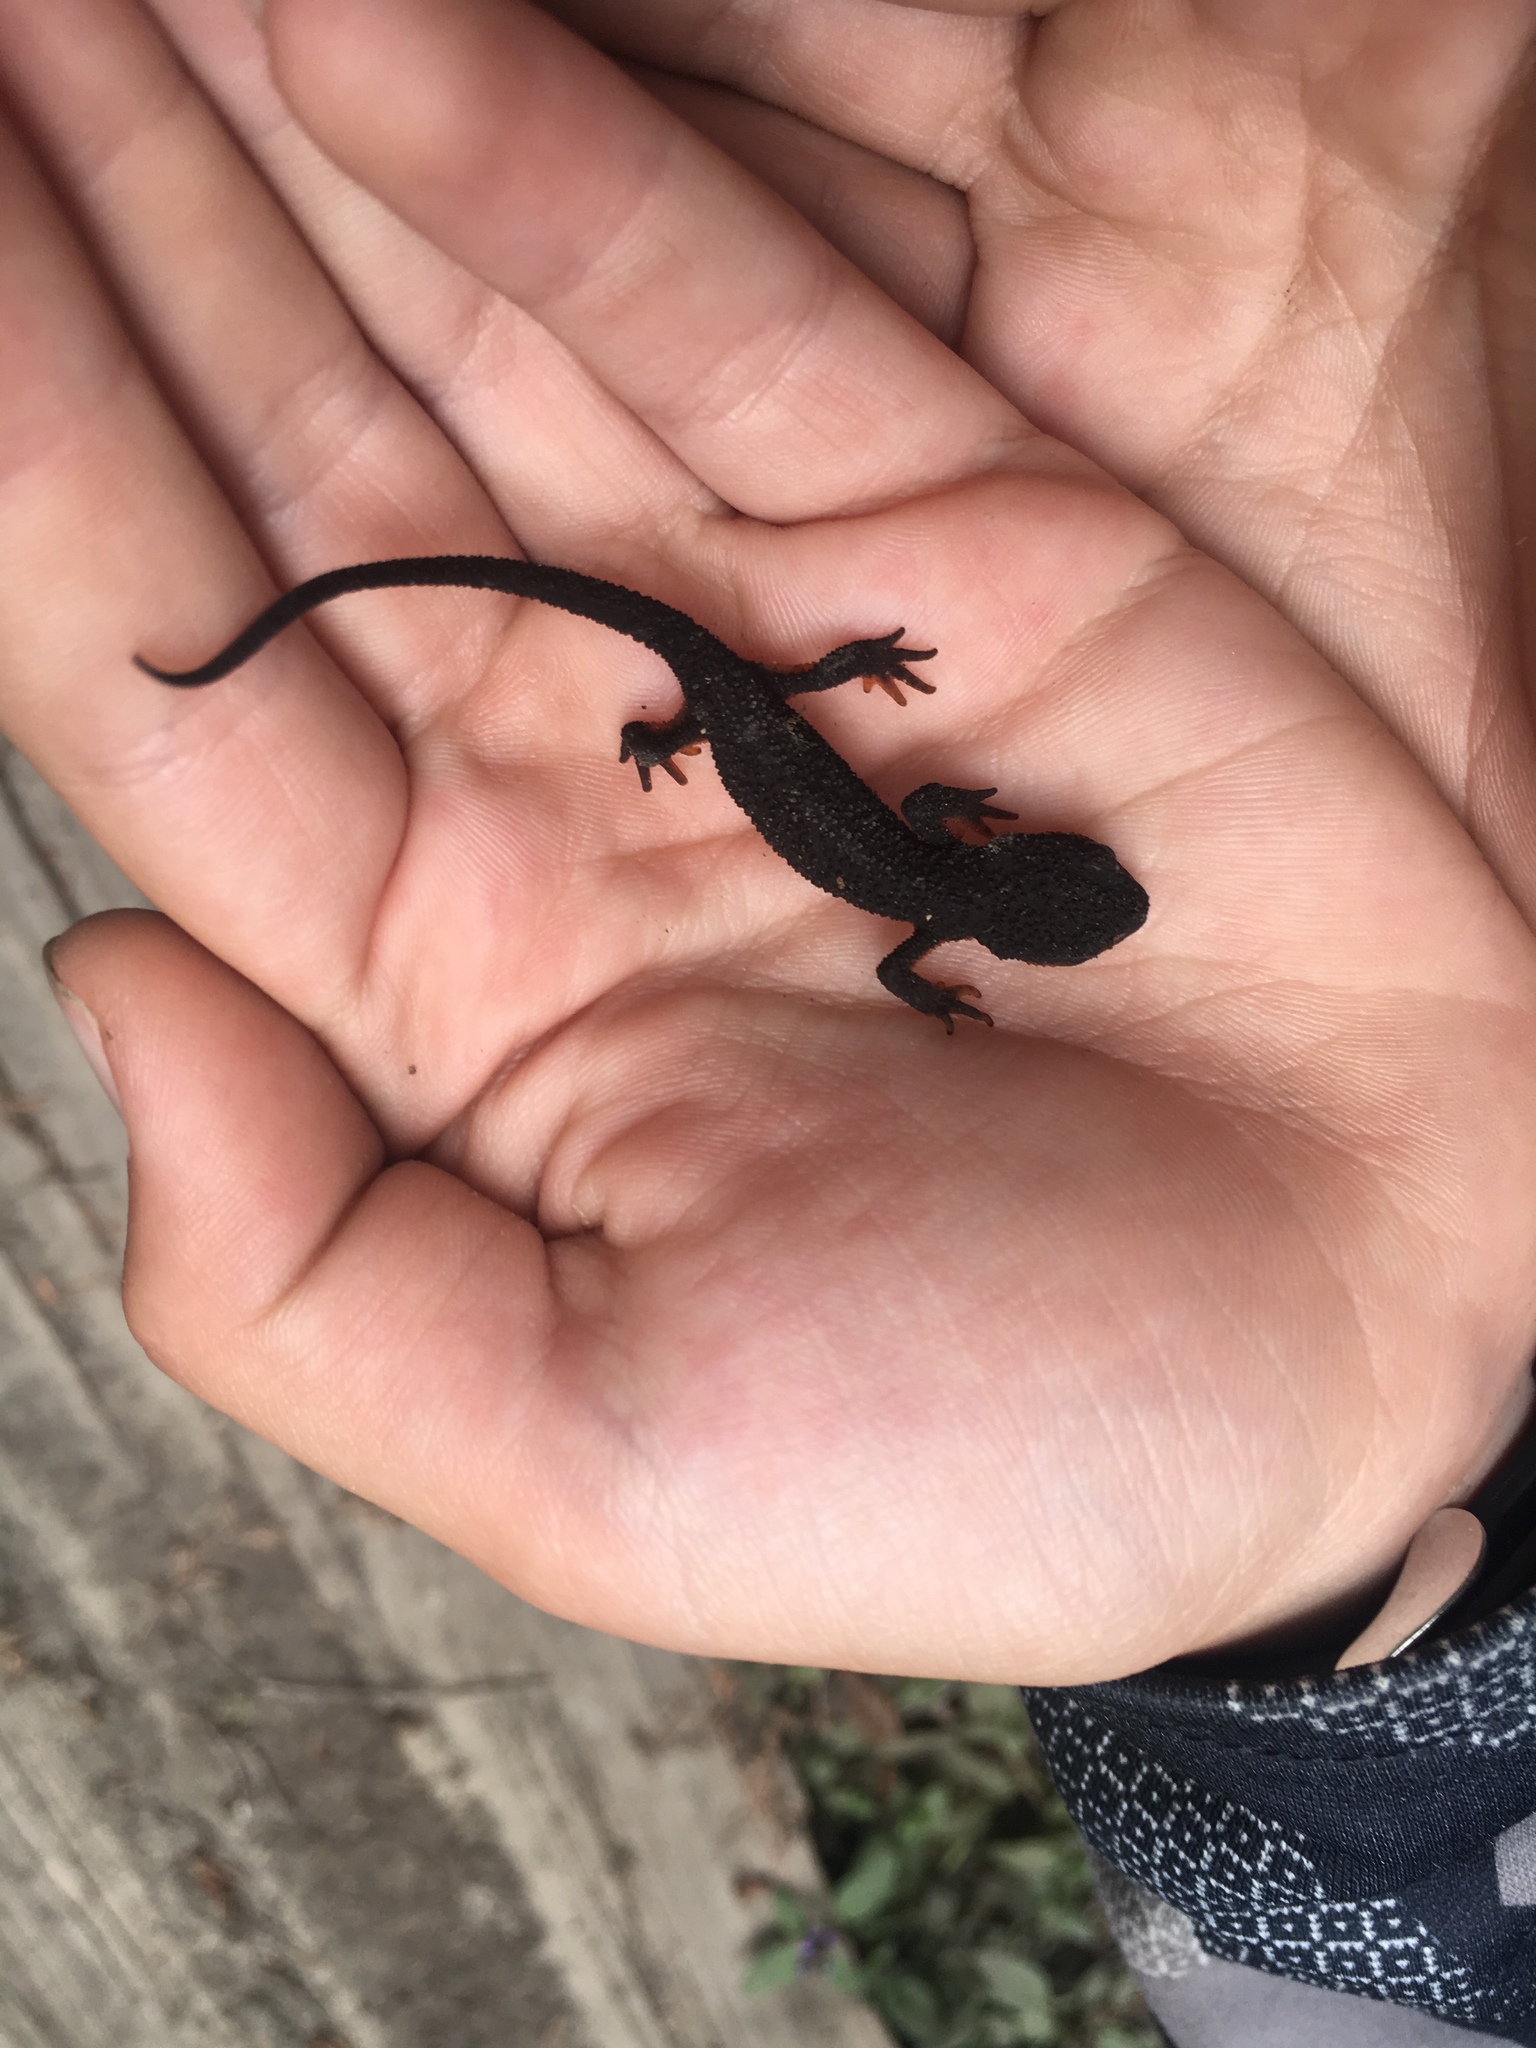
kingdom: Animalia
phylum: Chordata
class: Amphibia
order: Caudata
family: Salamandridae
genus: Taricha
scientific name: Taricha granulosa
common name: Roughskin newt
